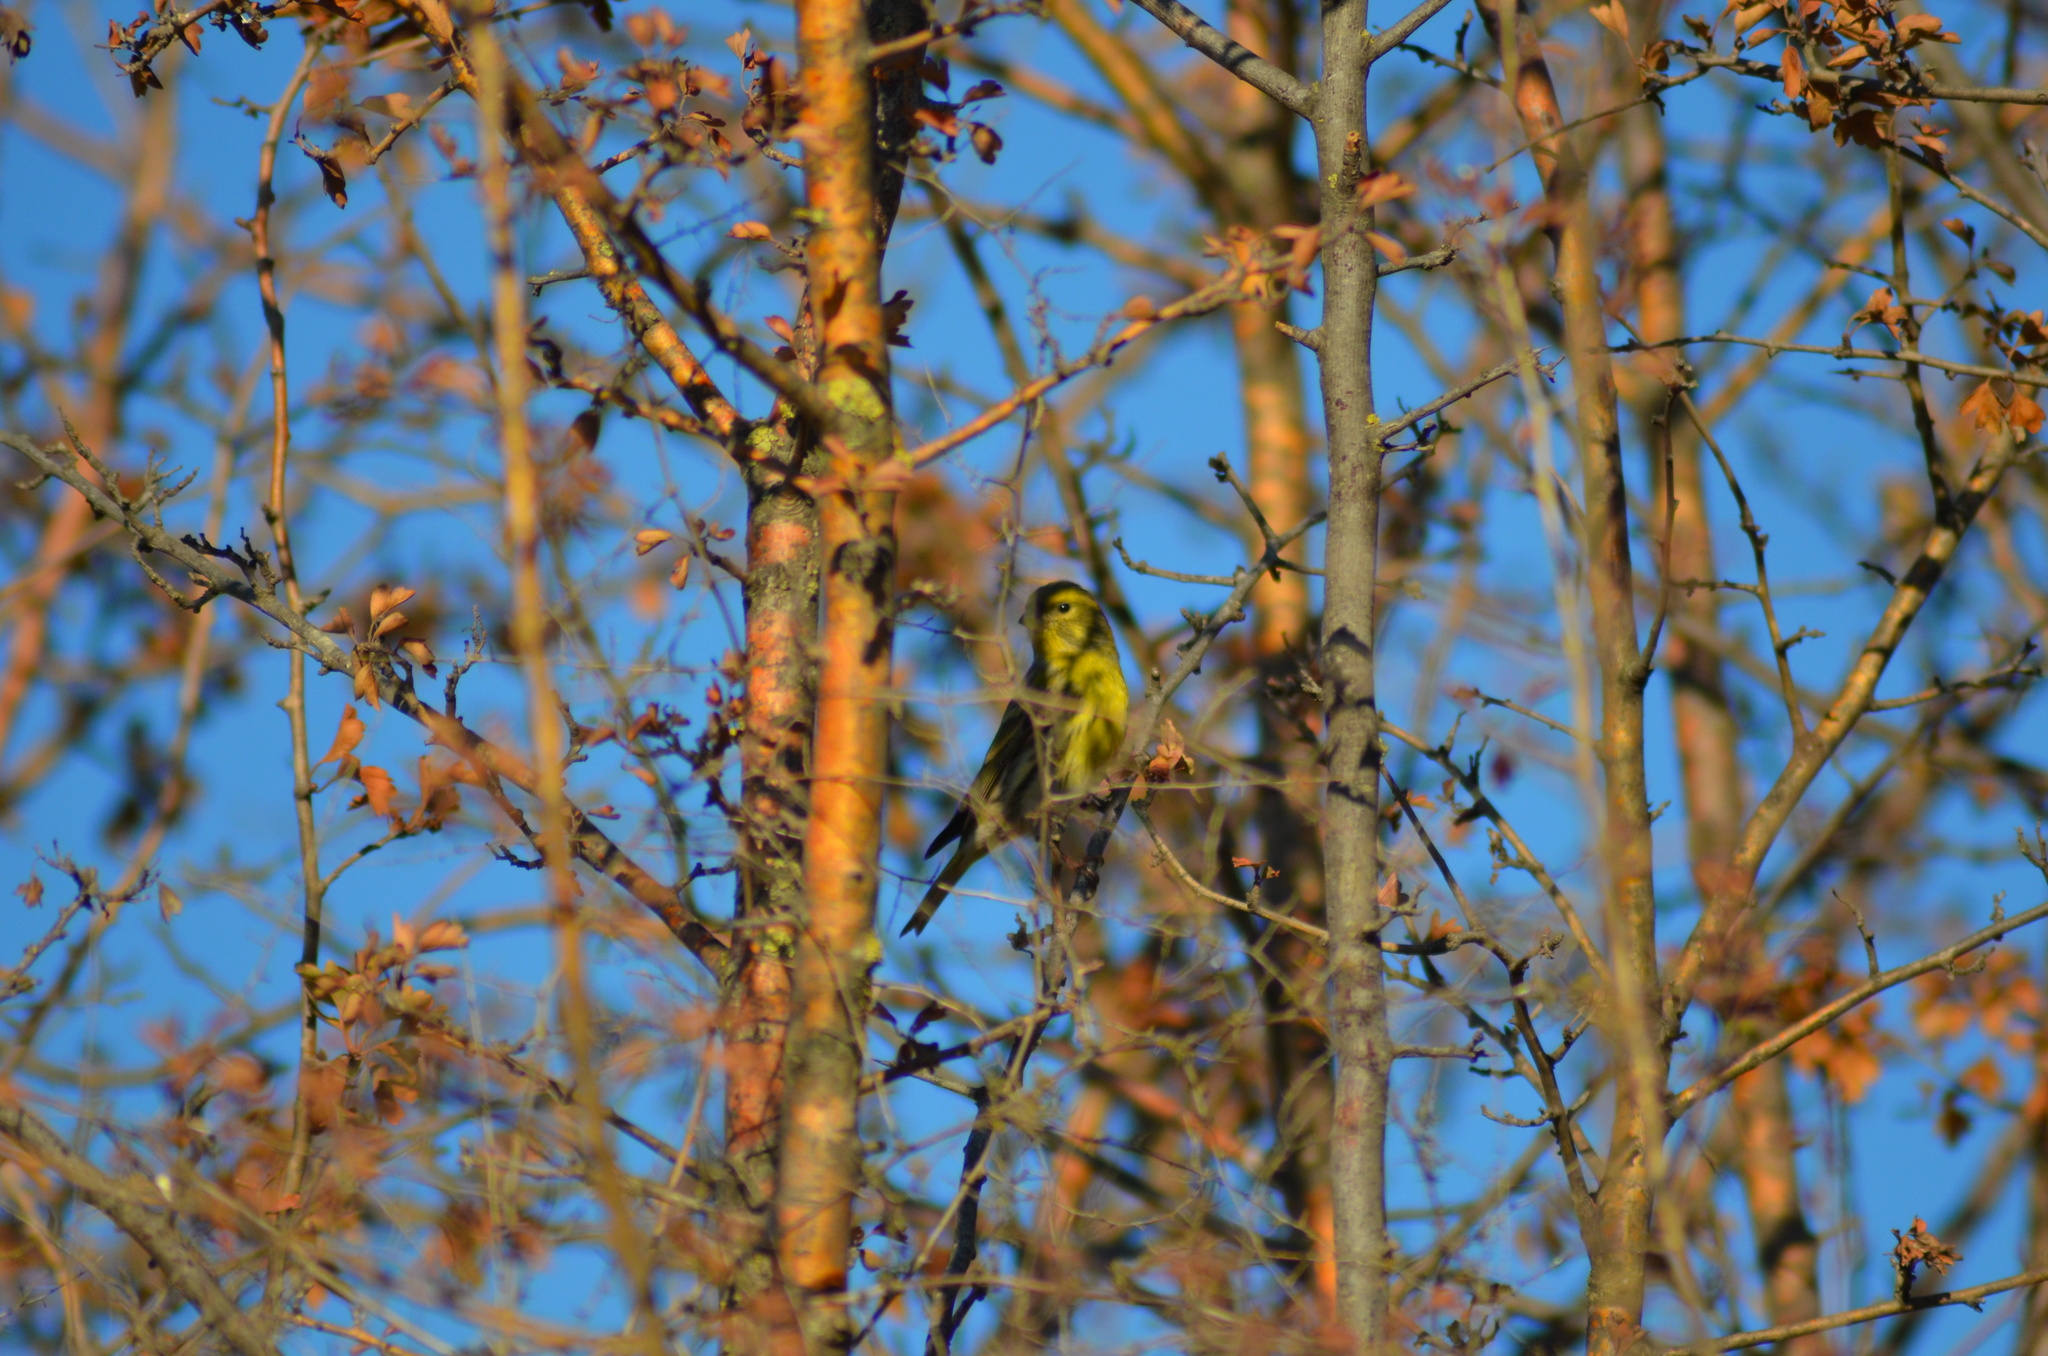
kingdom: Animalia
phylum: Chordata
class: Aves
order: Passeriformes
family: Fringillidae
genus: Serinus
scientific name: Serinus serinus
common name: European serin
